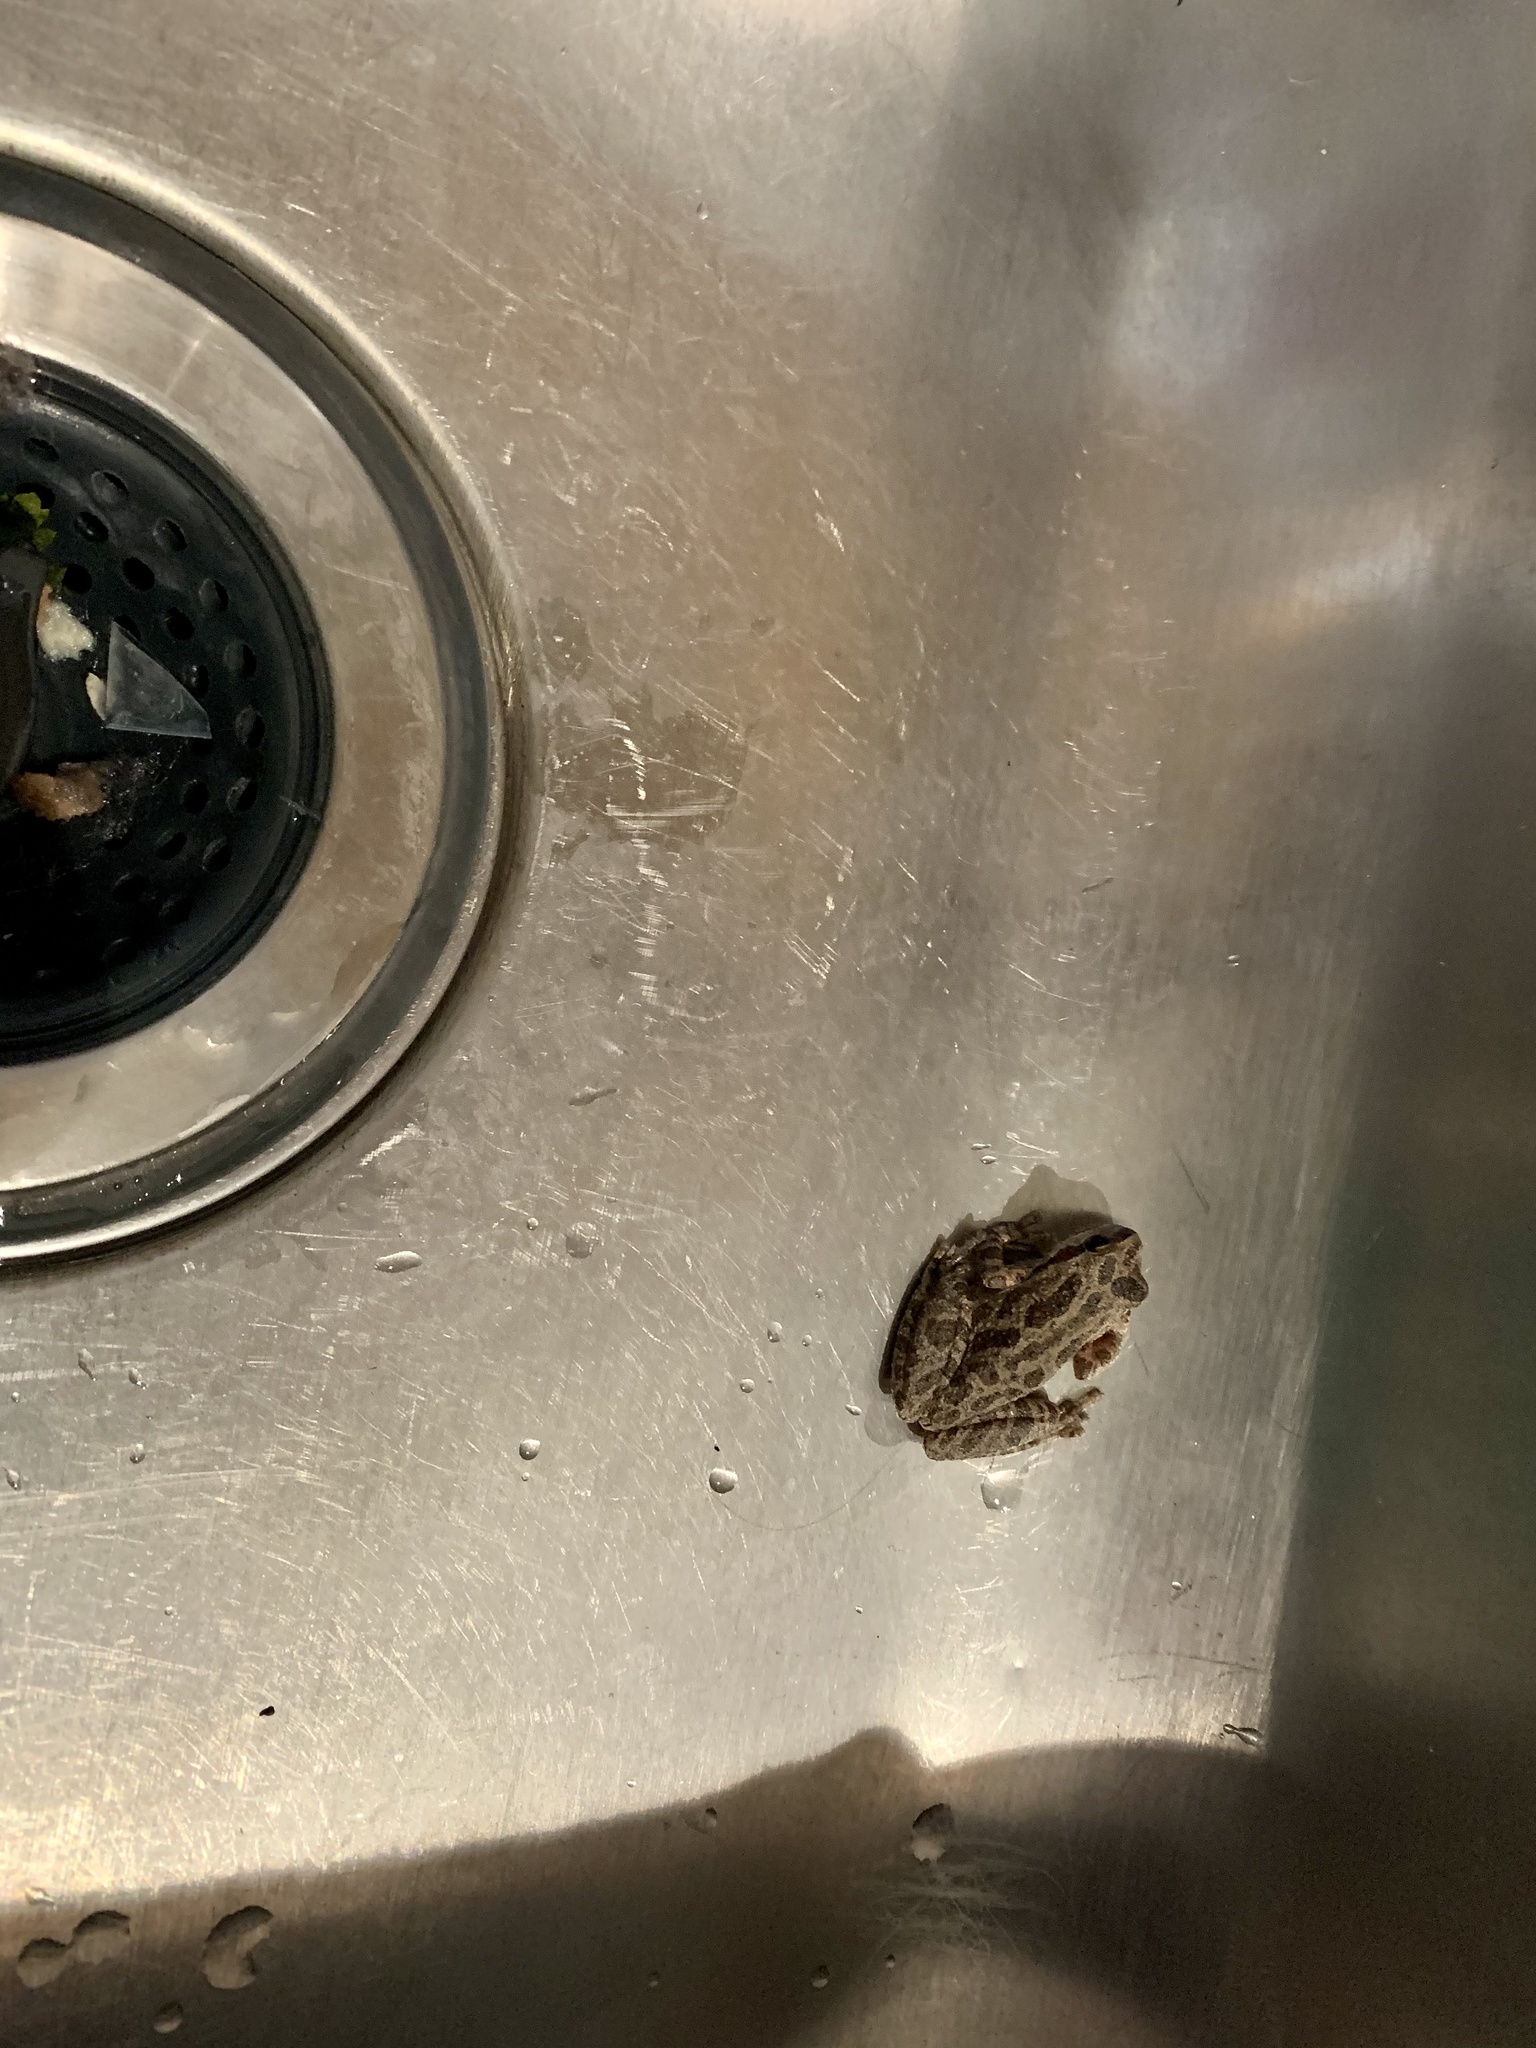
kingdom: Animalia
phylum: Chordata
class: Amphibia
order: Anura
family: Hylidae
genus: Pseudacris
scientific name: Pseudacris regilla
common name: Pacific chorus frog
